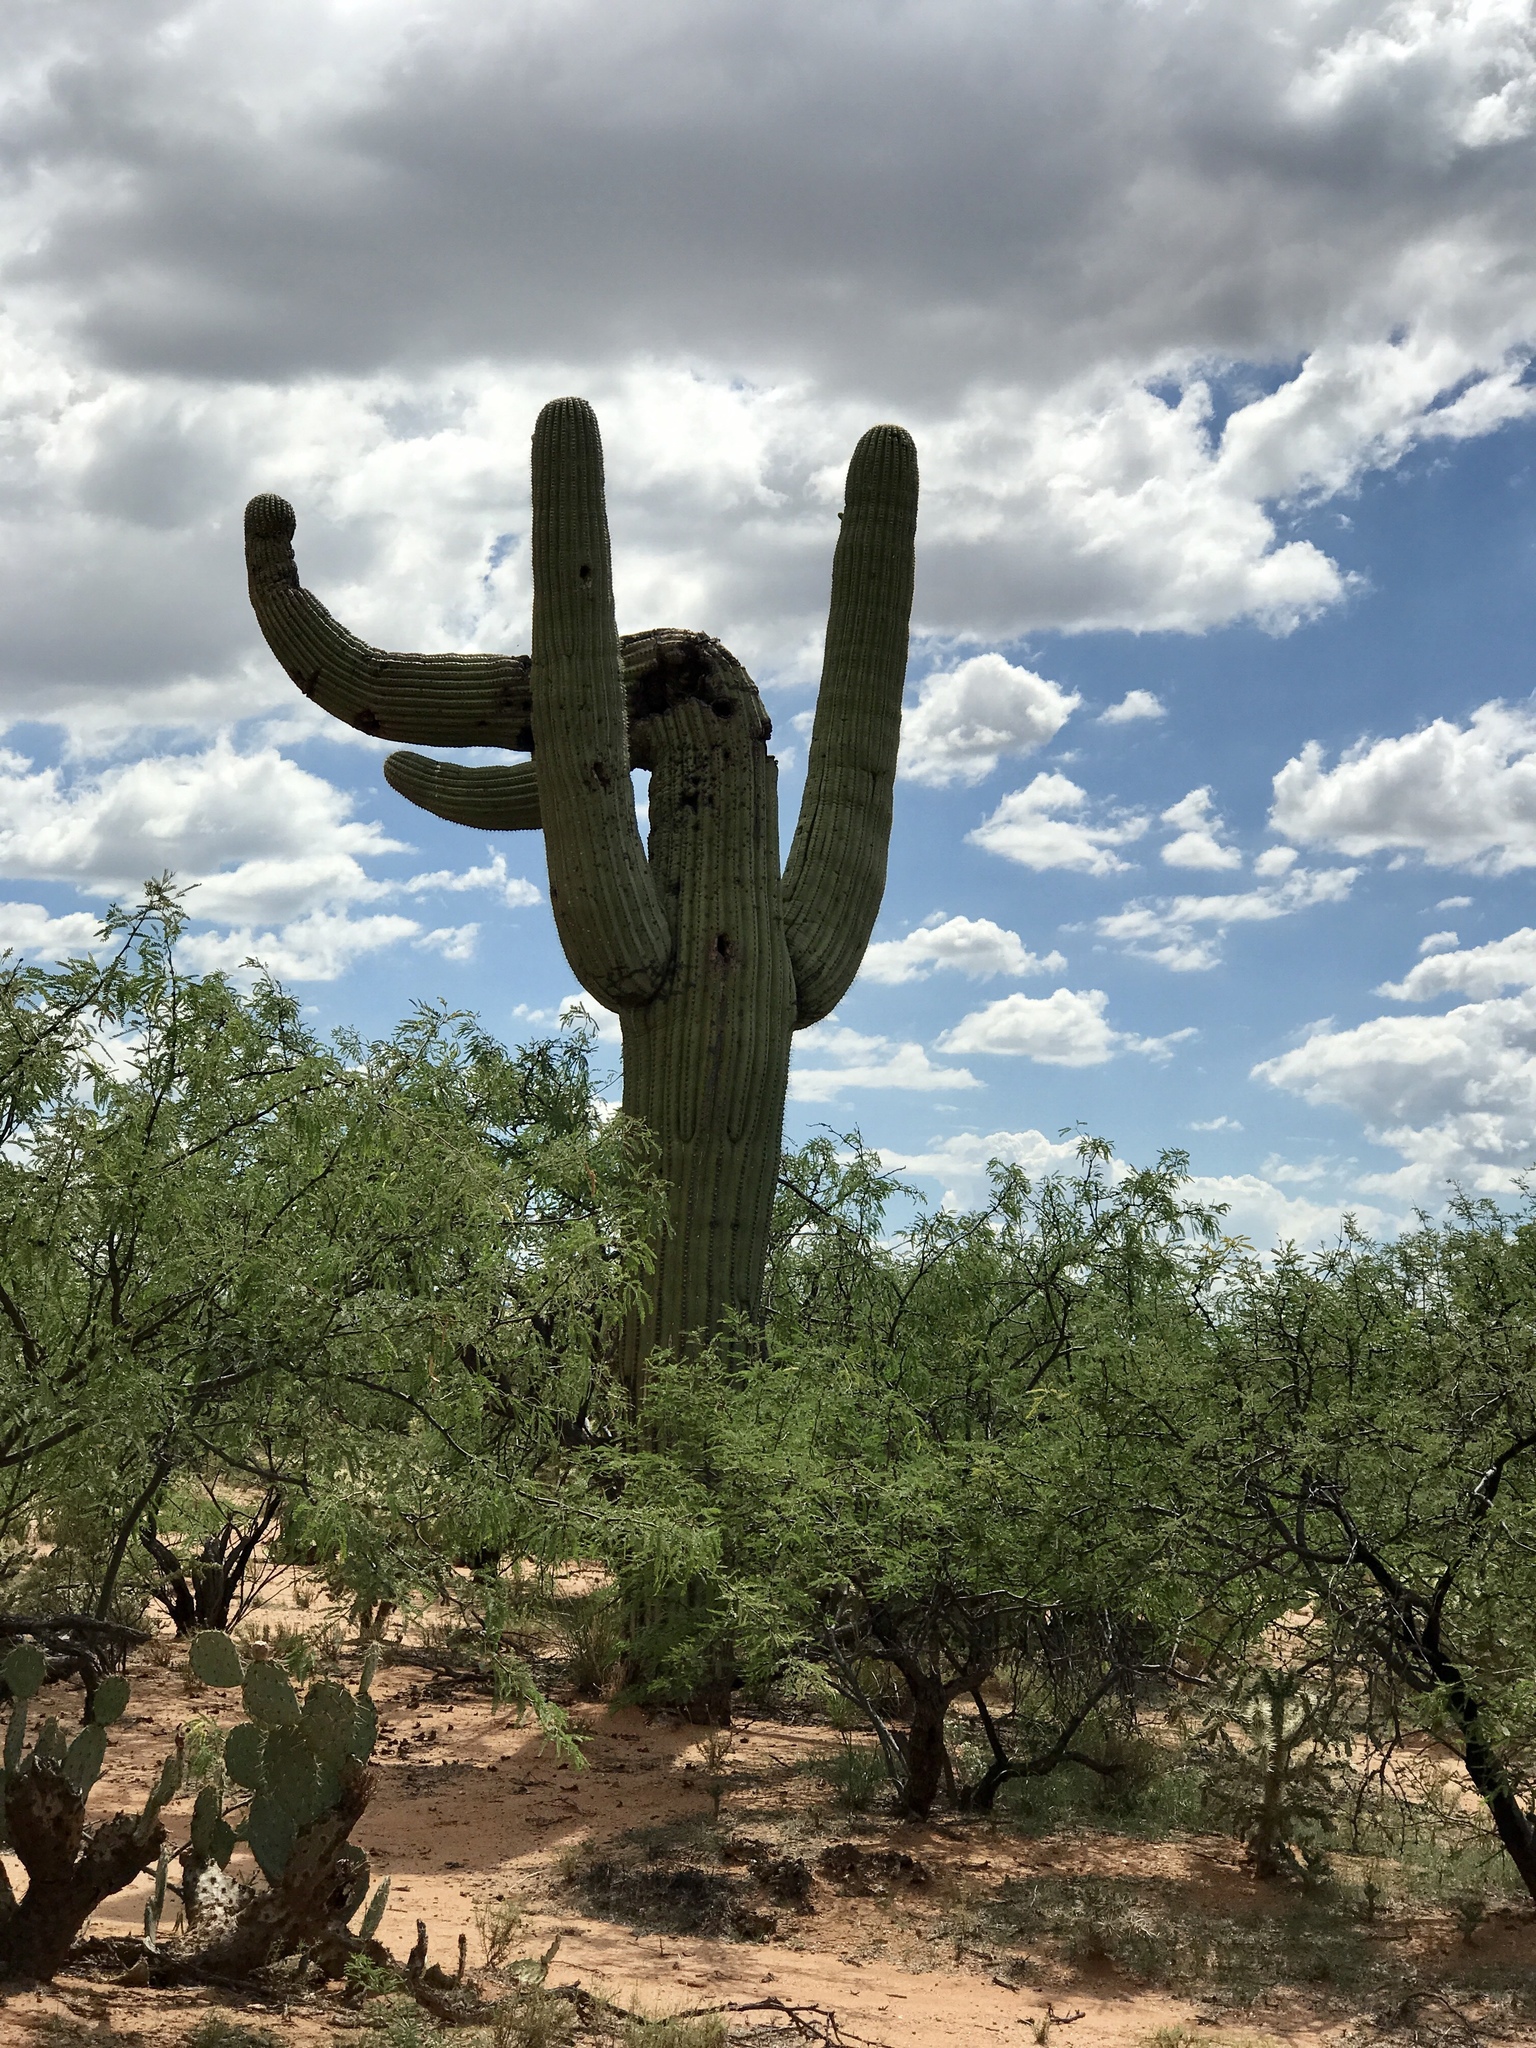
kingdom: Plantae
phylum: Tracheophyta
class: Magnoliopsida
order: Caryophyllales
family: Cactaceae
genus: Carnegiea
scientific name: Carnegiea gigantea
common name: Saguaro
